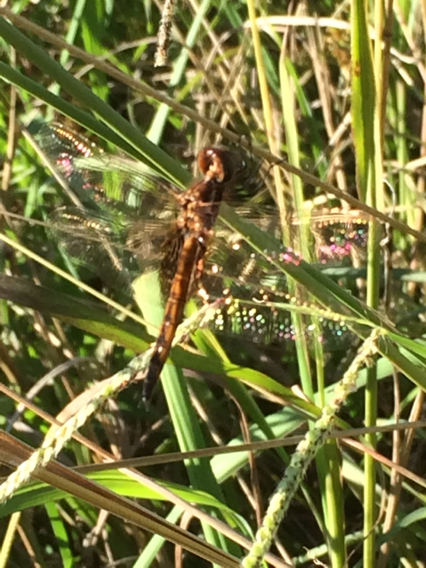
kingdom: Animalia
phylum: Arthropoda
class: Insecta
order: Odonata
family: Libellulidae
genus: Miathyria
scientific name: Miathyria marcella
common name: Hyacinth glider
